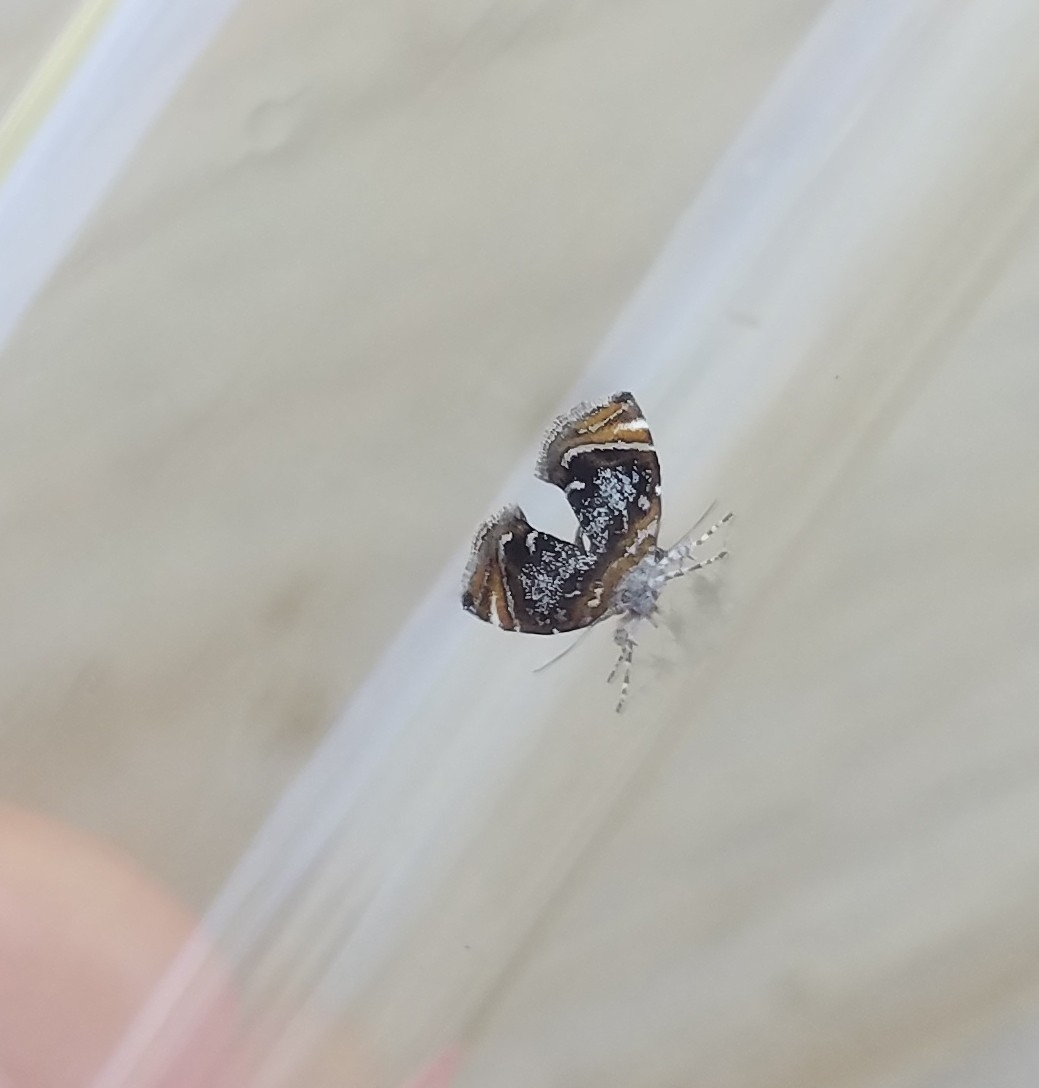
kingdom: Animalia
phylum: Arthropoda
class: Insecta
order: Lepidoptera
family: Choreutidae
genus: Prochoreutis
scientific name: Prochoreutis inflatella
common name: Skullcap skeletonizer moth
